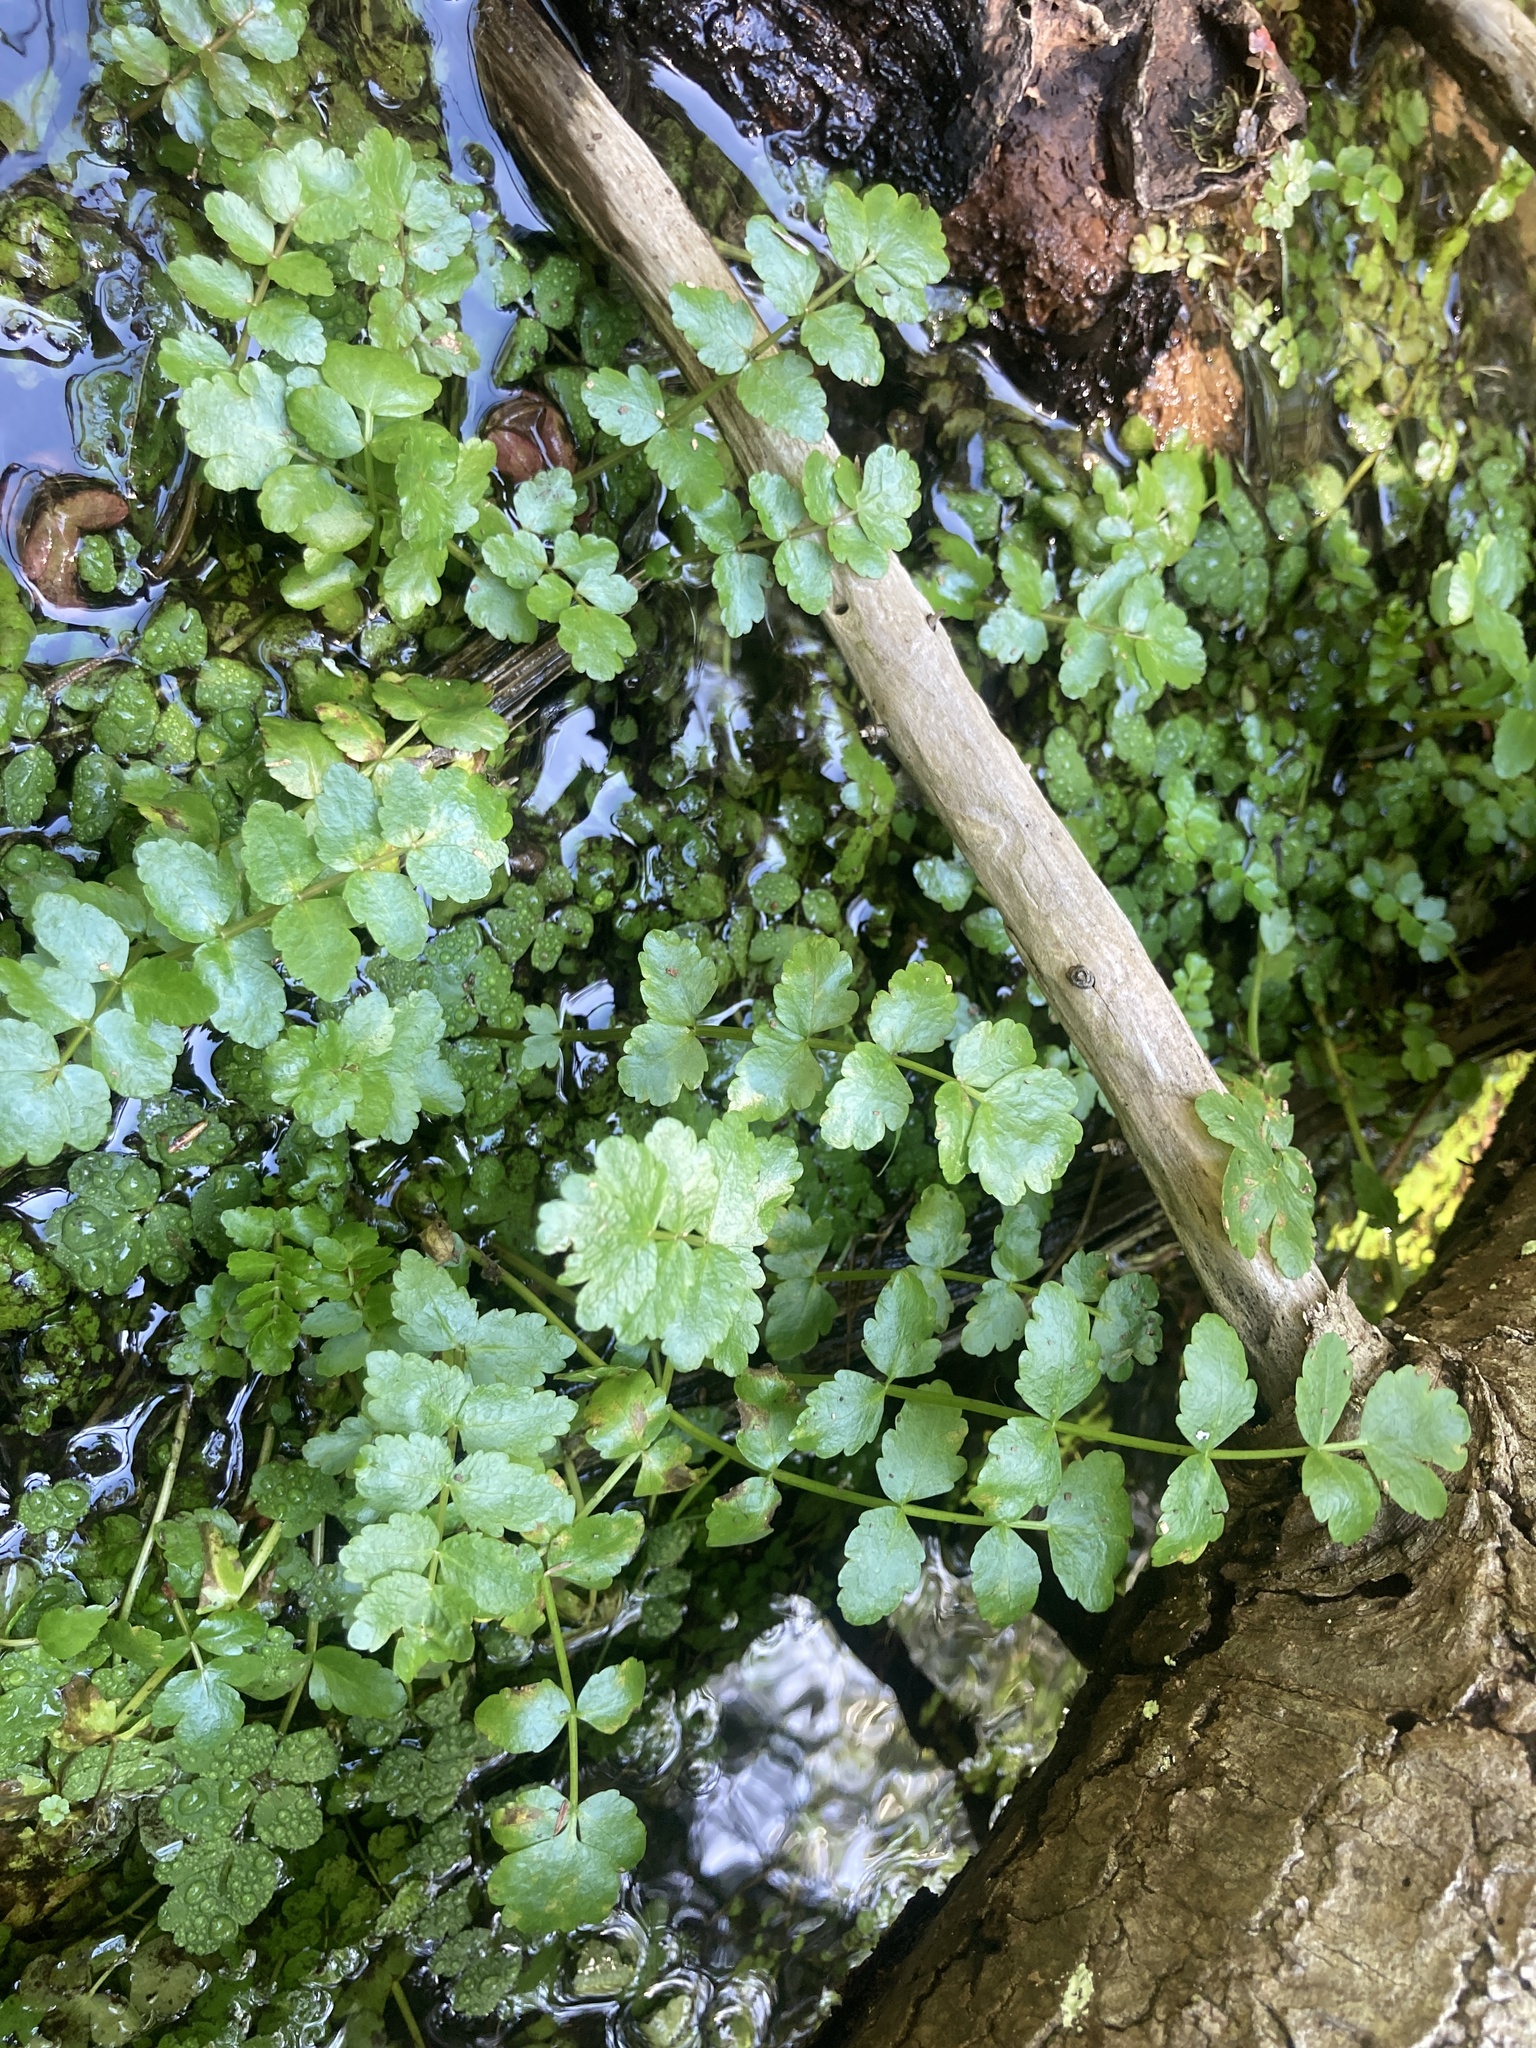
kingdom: Plantae
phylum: Tracheophyta
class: Magnoliopsida
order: Apiales
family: Apiaceae
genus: Berula
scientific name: Berula erecta
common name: Lesser water-parsnip
